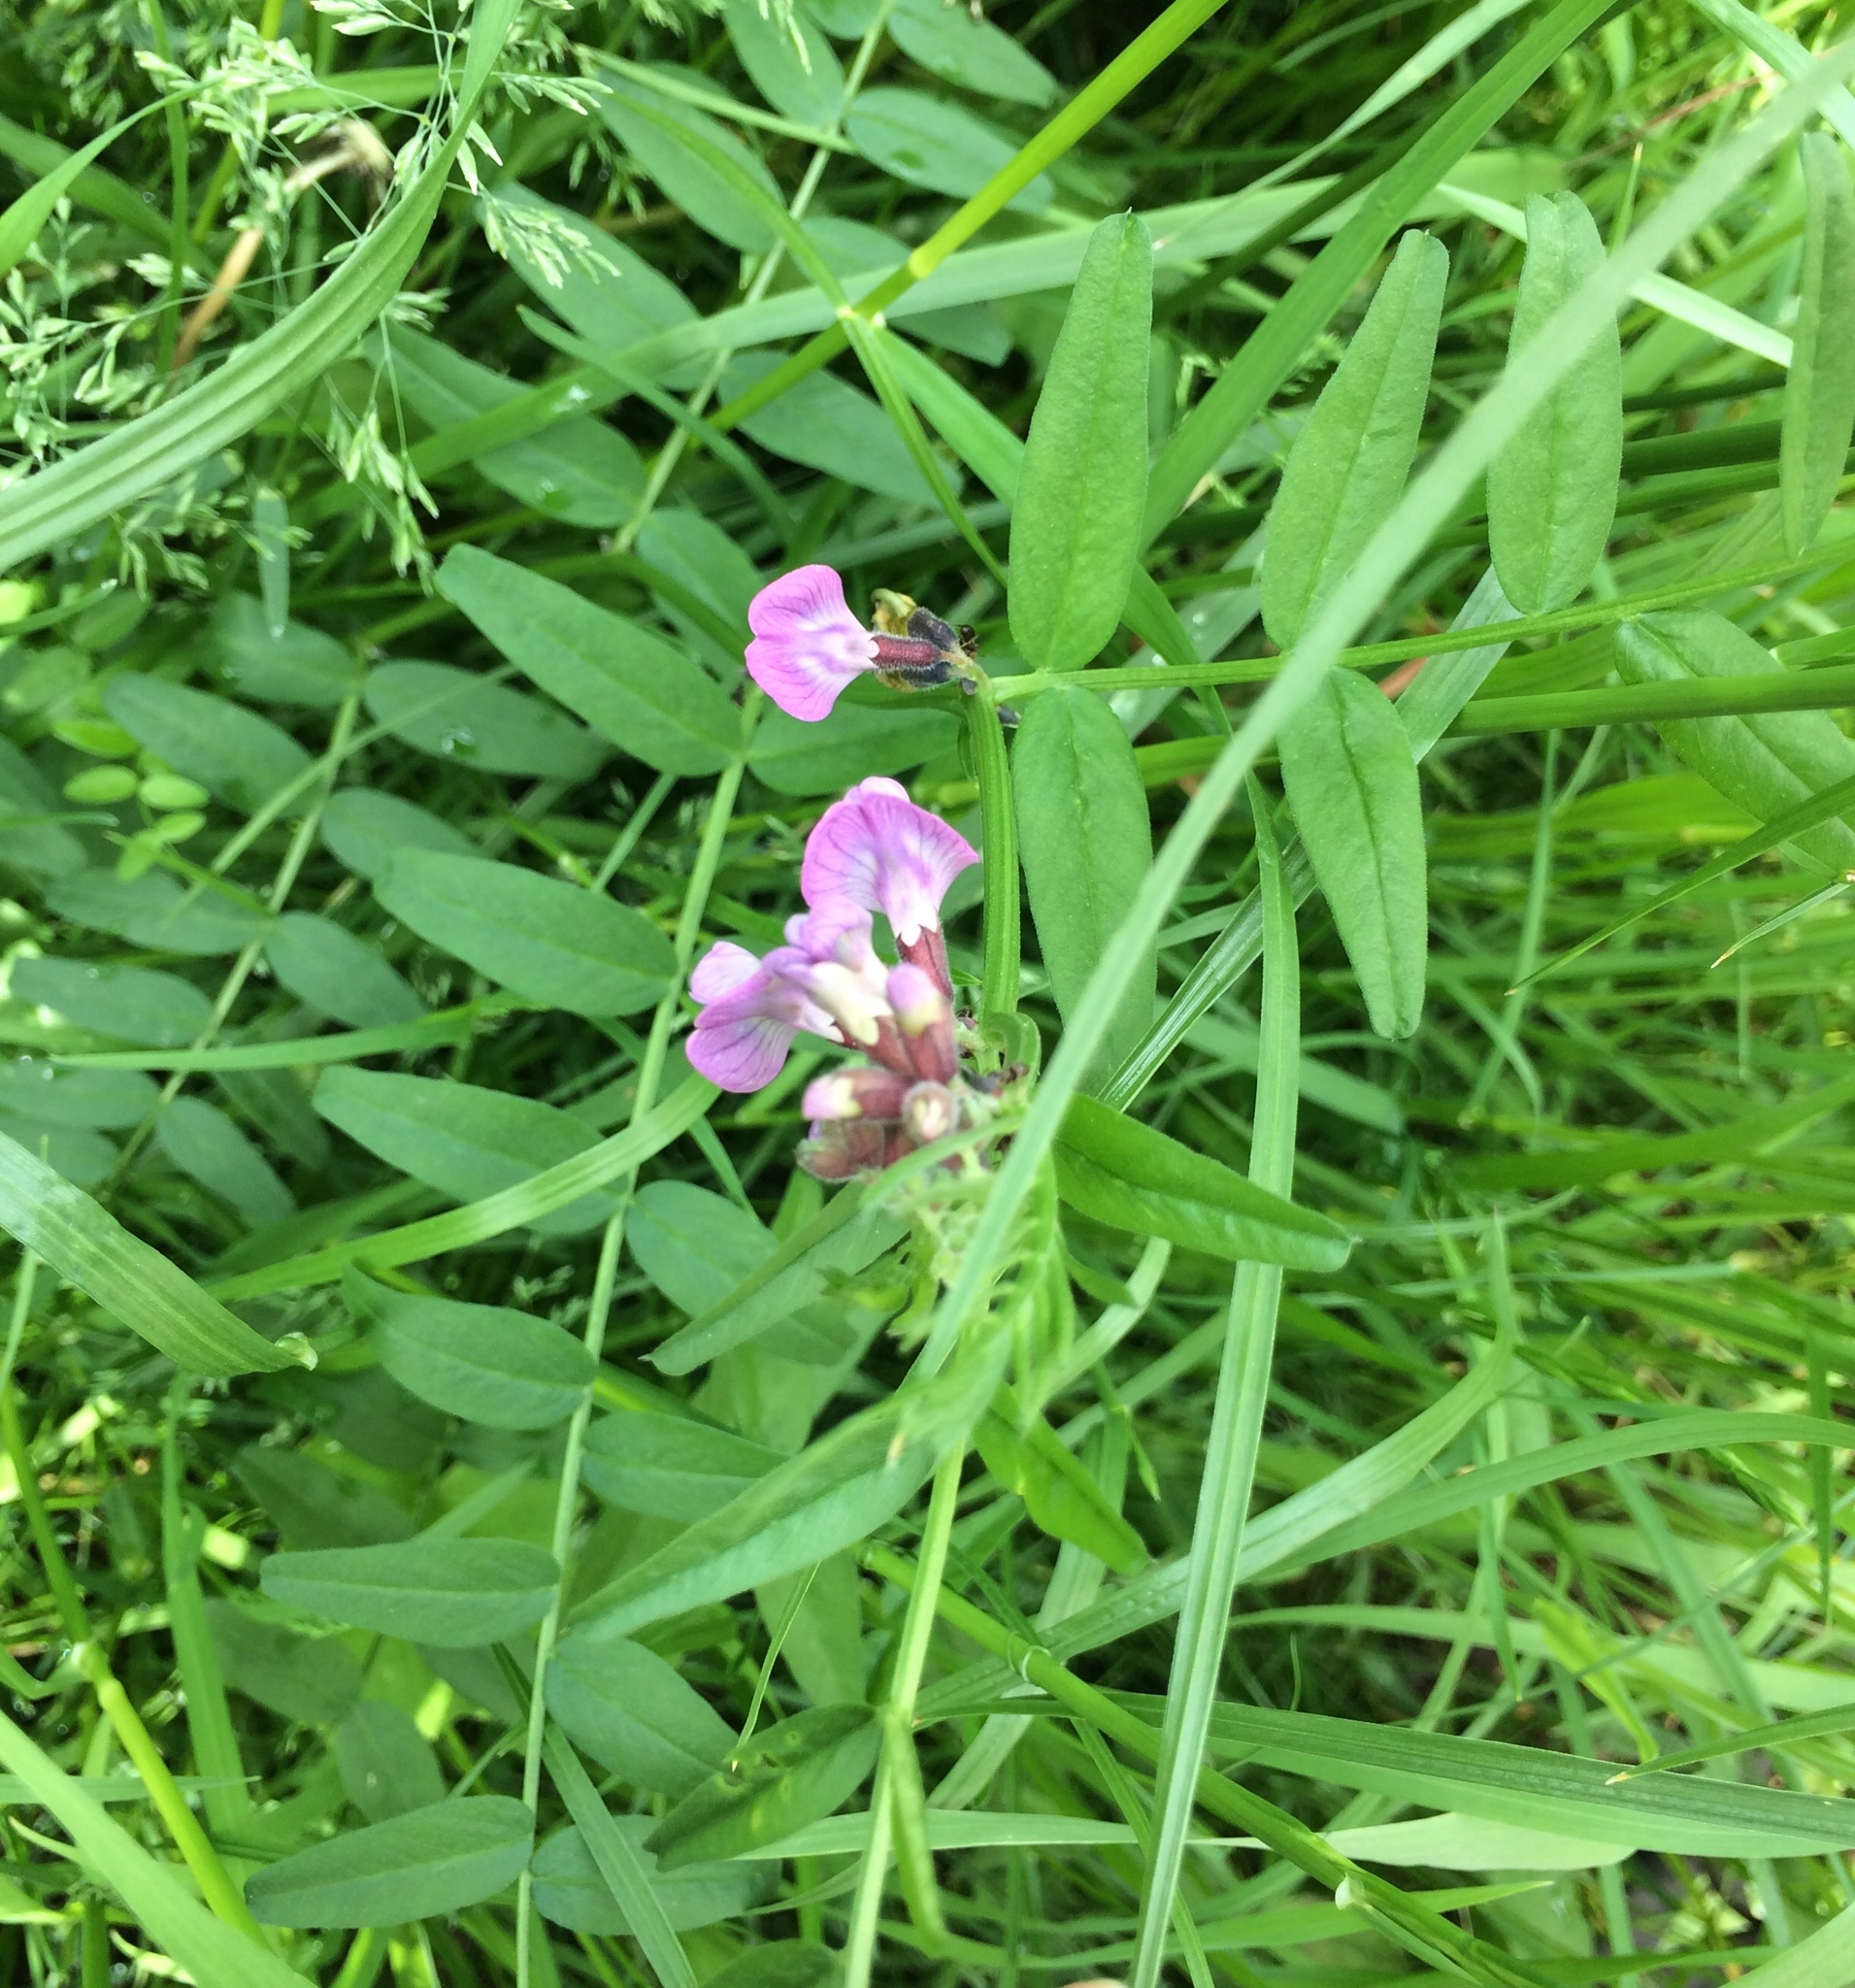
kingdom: Plantae
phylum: Tracheophyta
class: Magnoliopsida
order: Fabales
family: Fabaceae
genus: Vicia
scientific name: Vicia sepium
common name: Bush vetch
